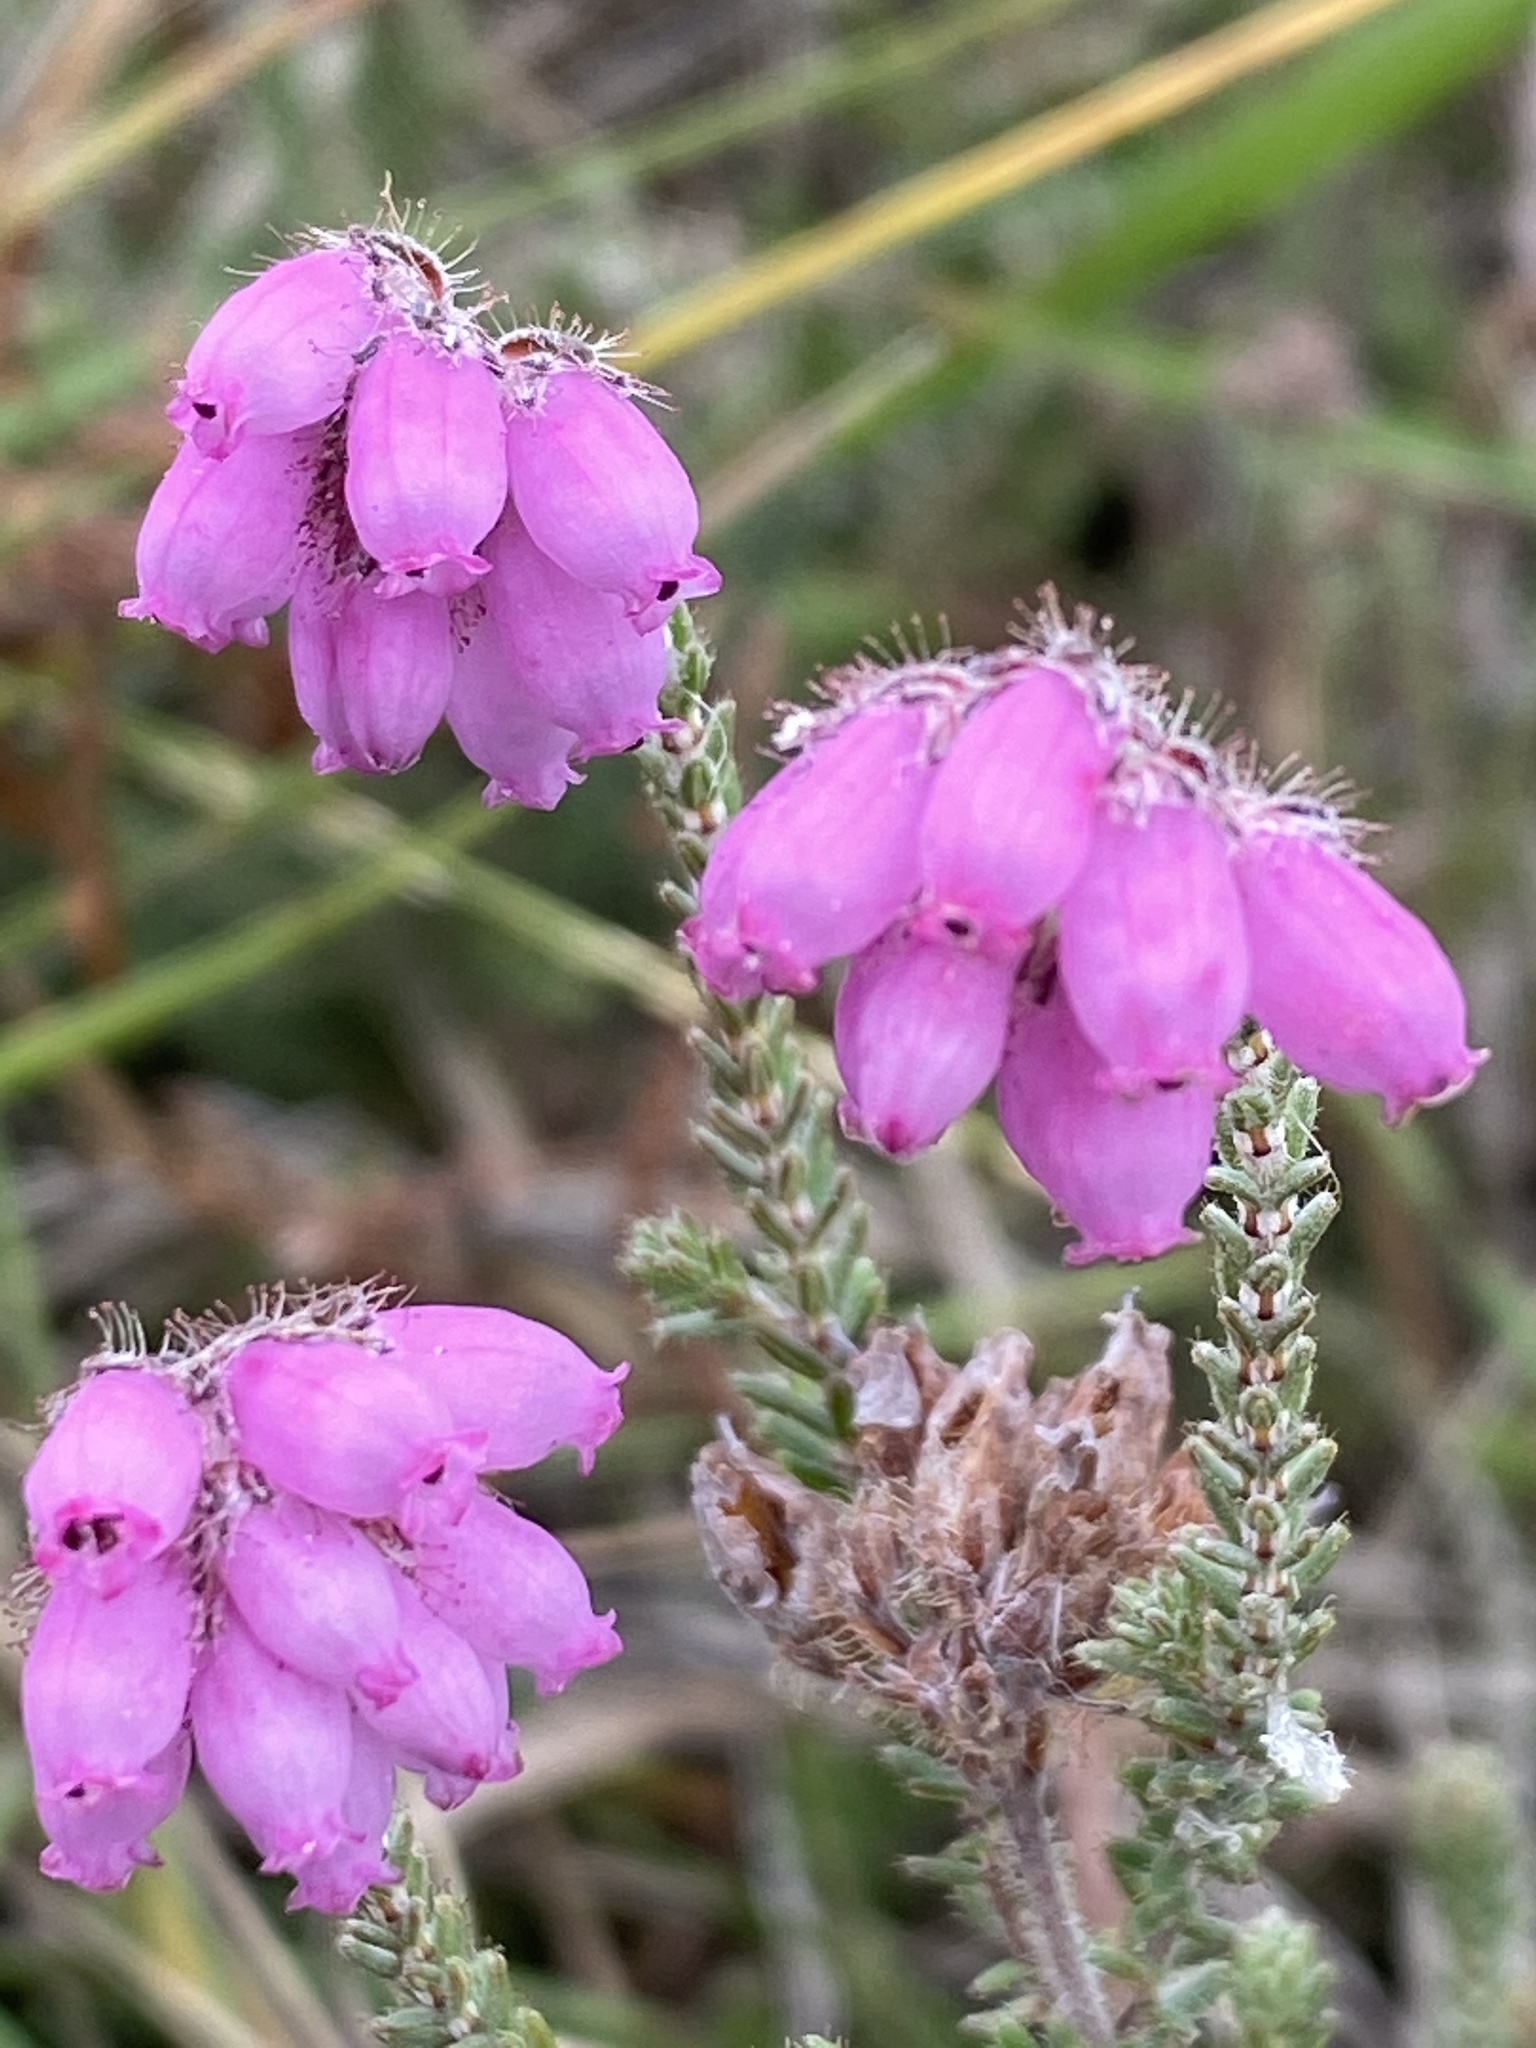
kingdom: Plantae
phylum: Tracheophyta
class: Magnoliopsida
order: Ericales
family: Ericaceae
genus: Erica
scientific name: Erica tetralix
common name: Cross-leaved heath
